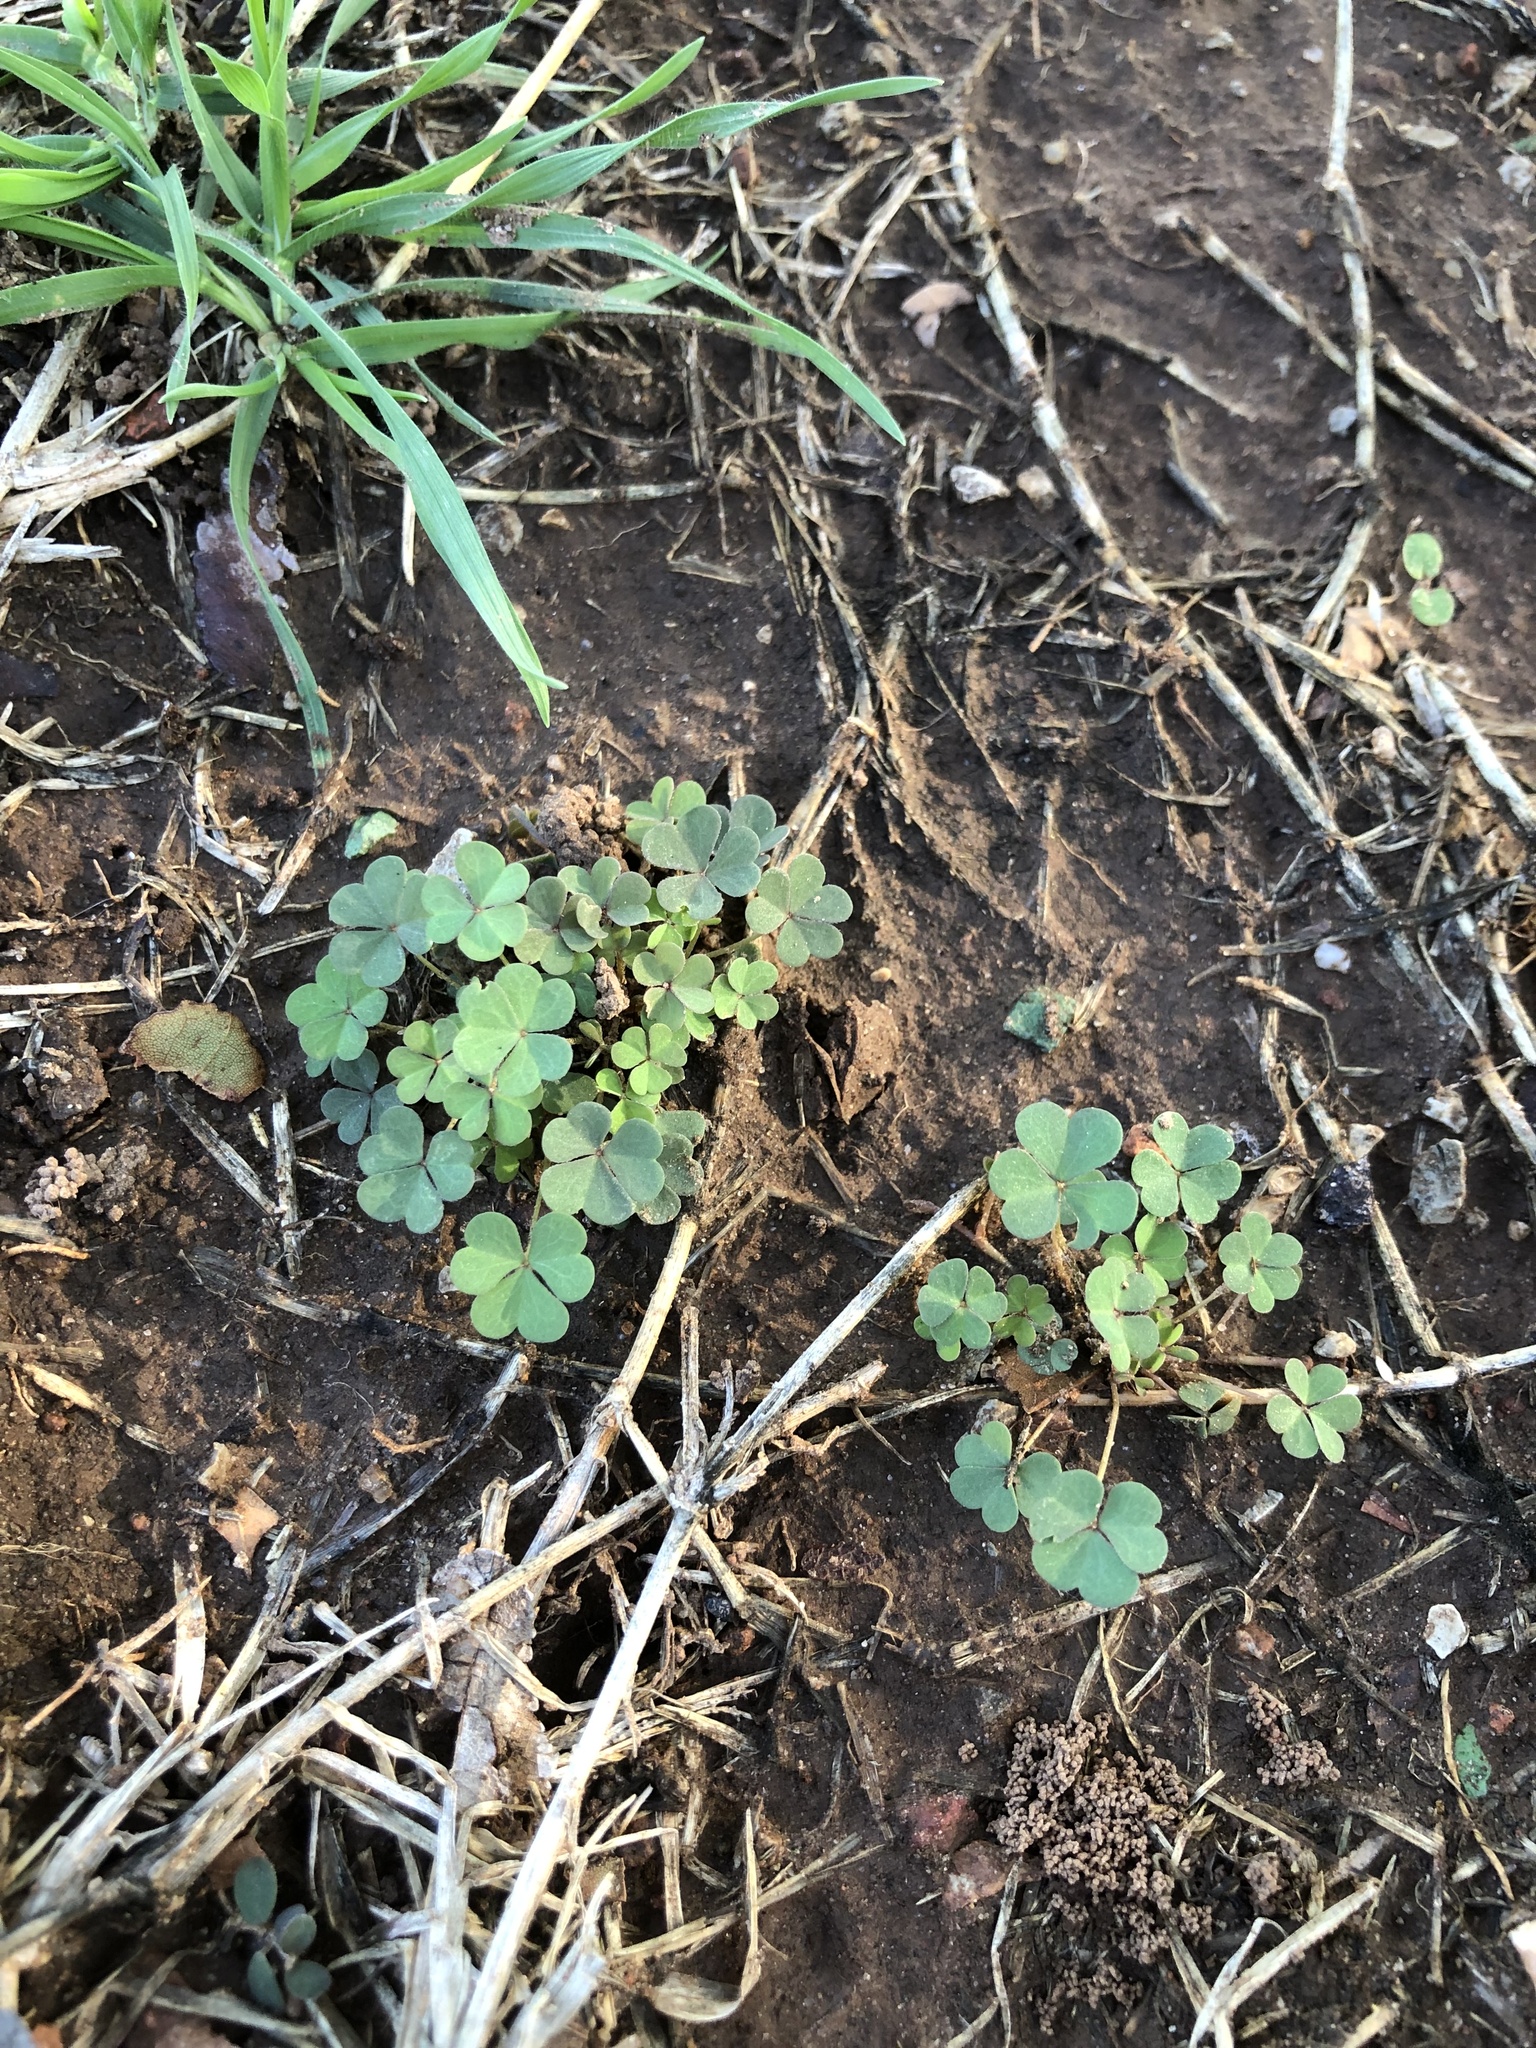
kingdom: Plantae
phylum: Tracheophyta
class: Magnoliopsida
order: Oxalidales
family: Oxalidaceae
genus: Oxalis
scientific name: Oxalis corniculata
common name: Procumbent yellow-sorrel
